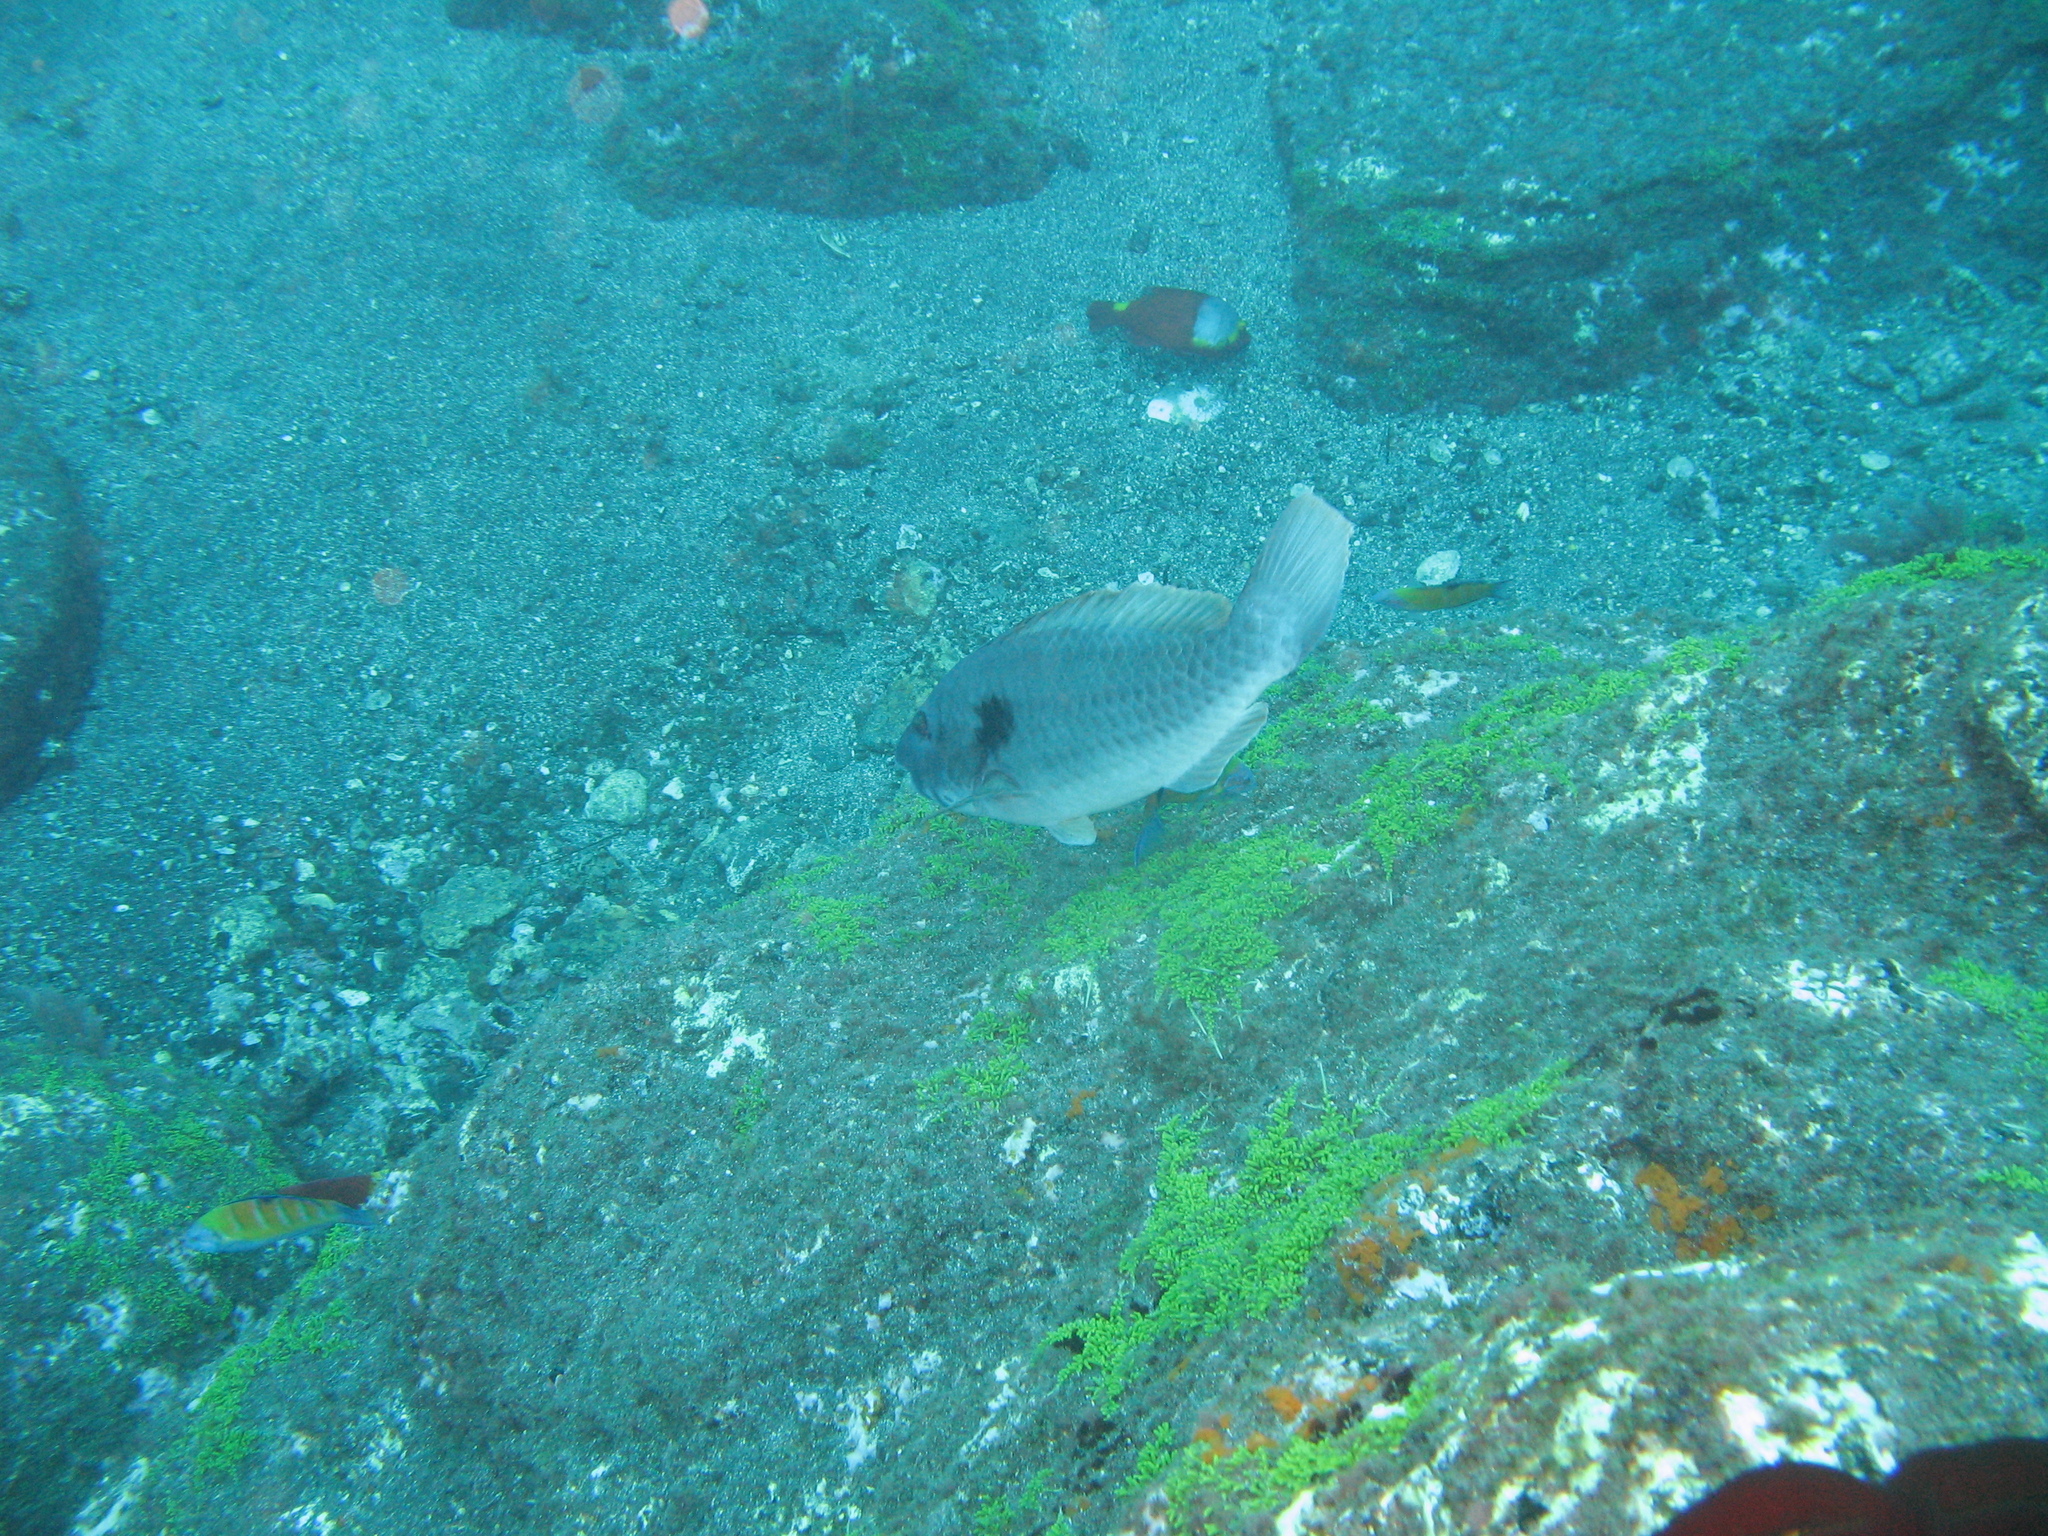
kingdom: Animalia
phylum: Chordata
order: Perciformes
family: Scaridae
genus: Sparisoma
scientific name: Sparisoma cretense
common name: Parrotfish
